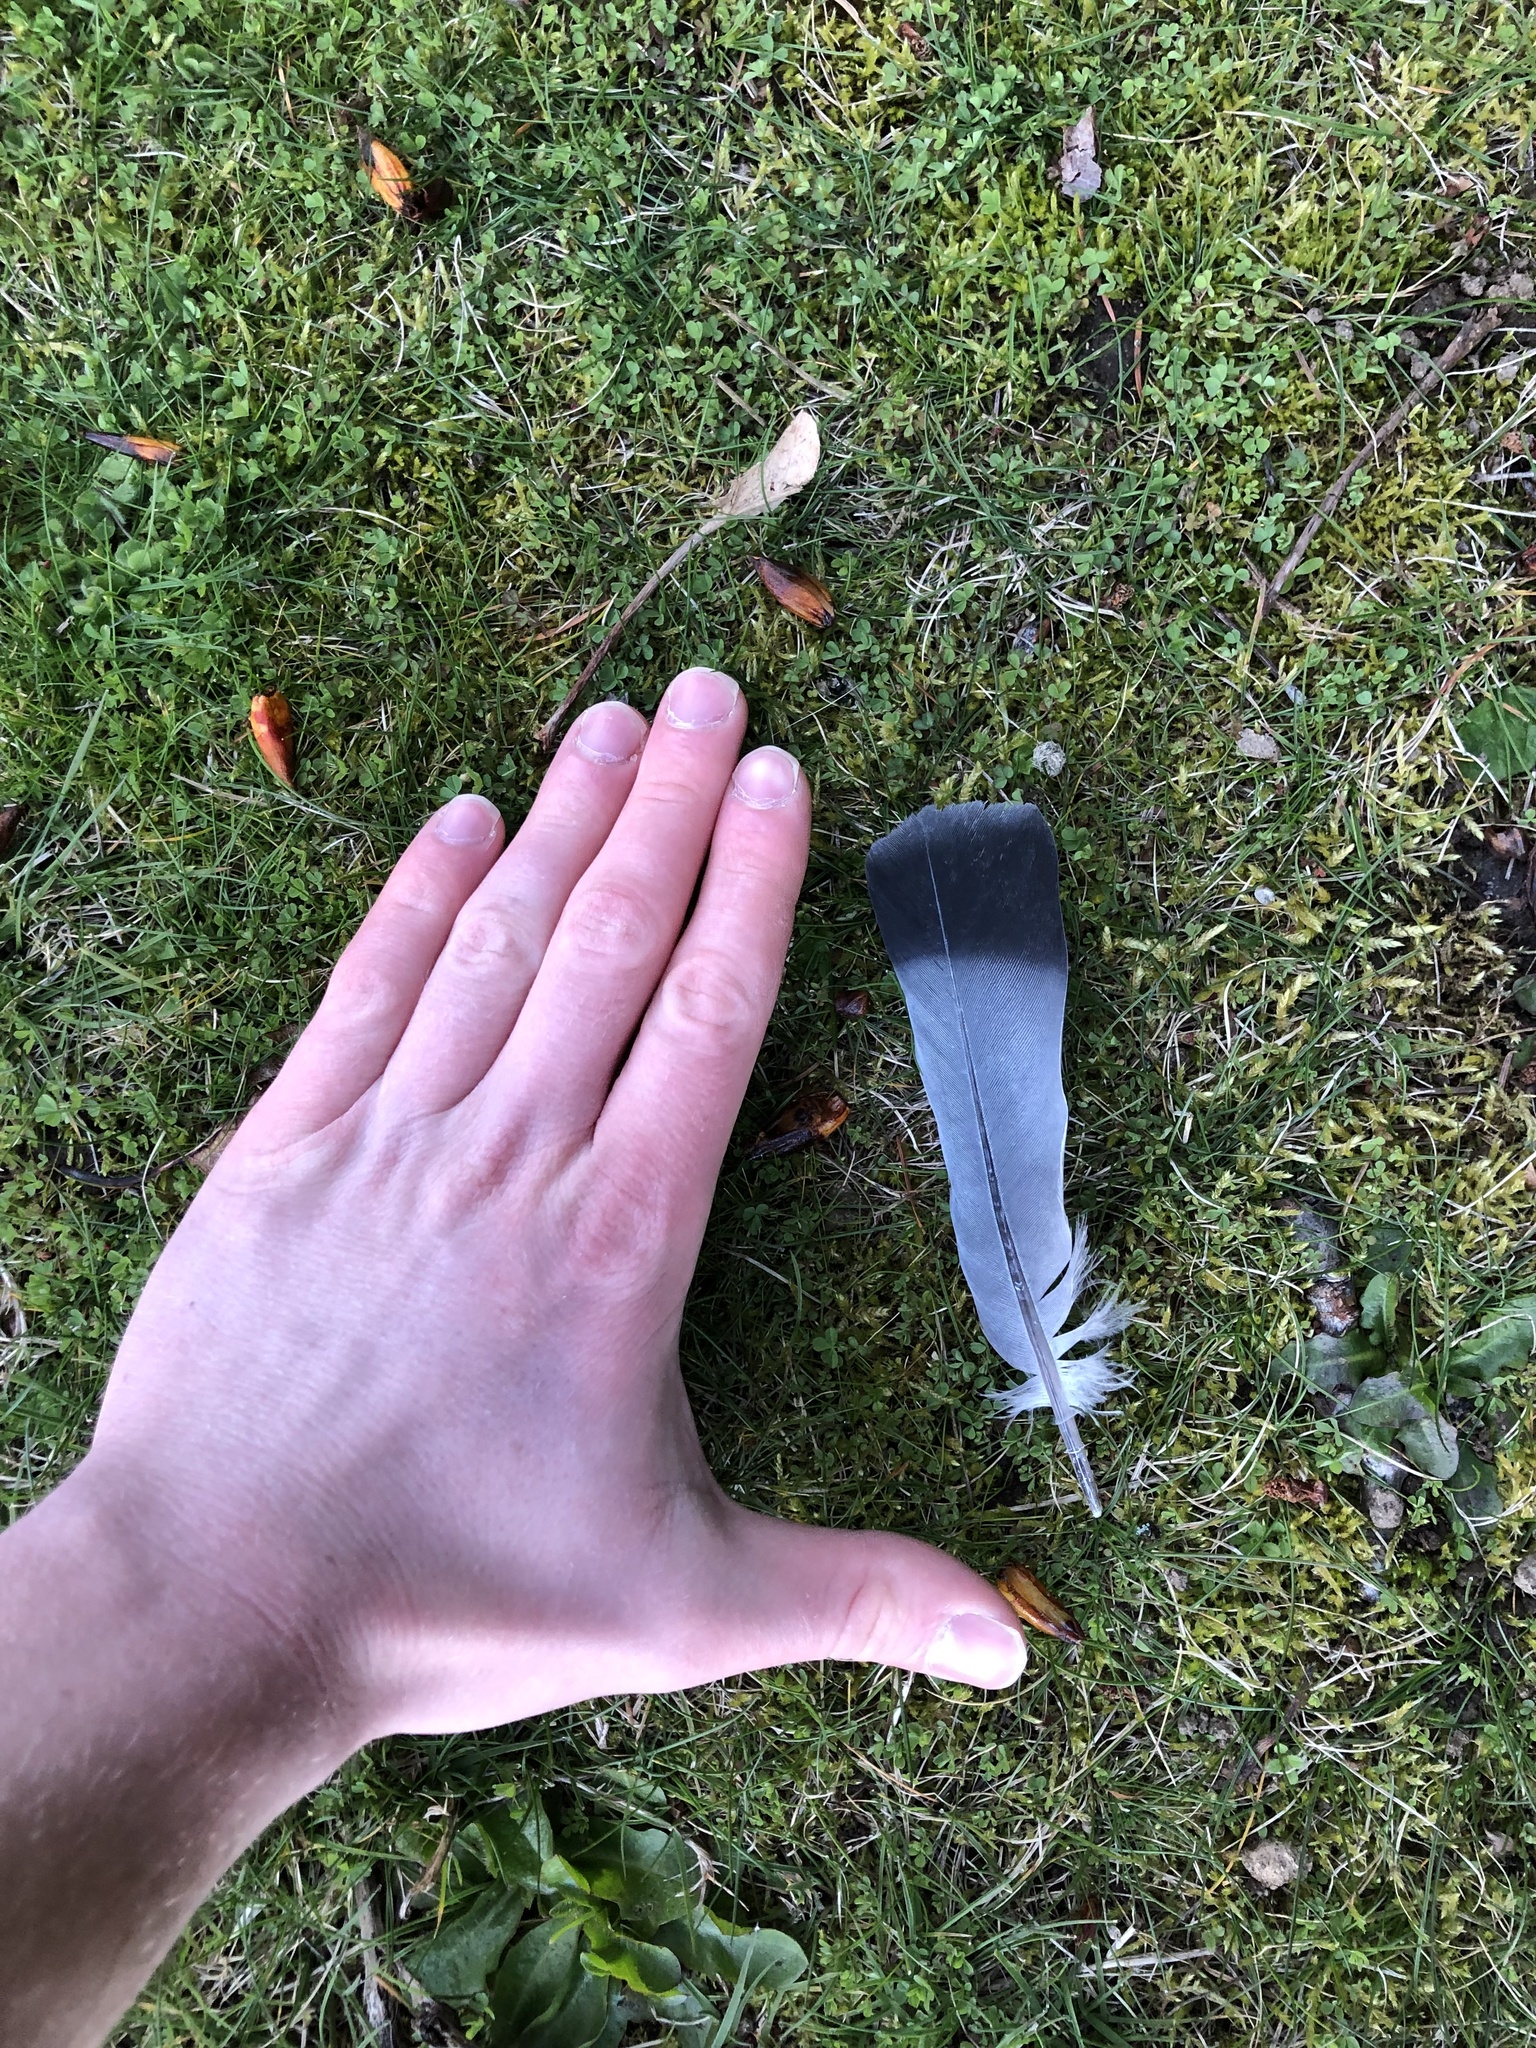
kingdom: Animalia
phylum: Chordata
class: Aves
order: Columbiformes
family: Columbidae
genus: Columba
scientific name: Columba livia
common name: Rock pigeon
